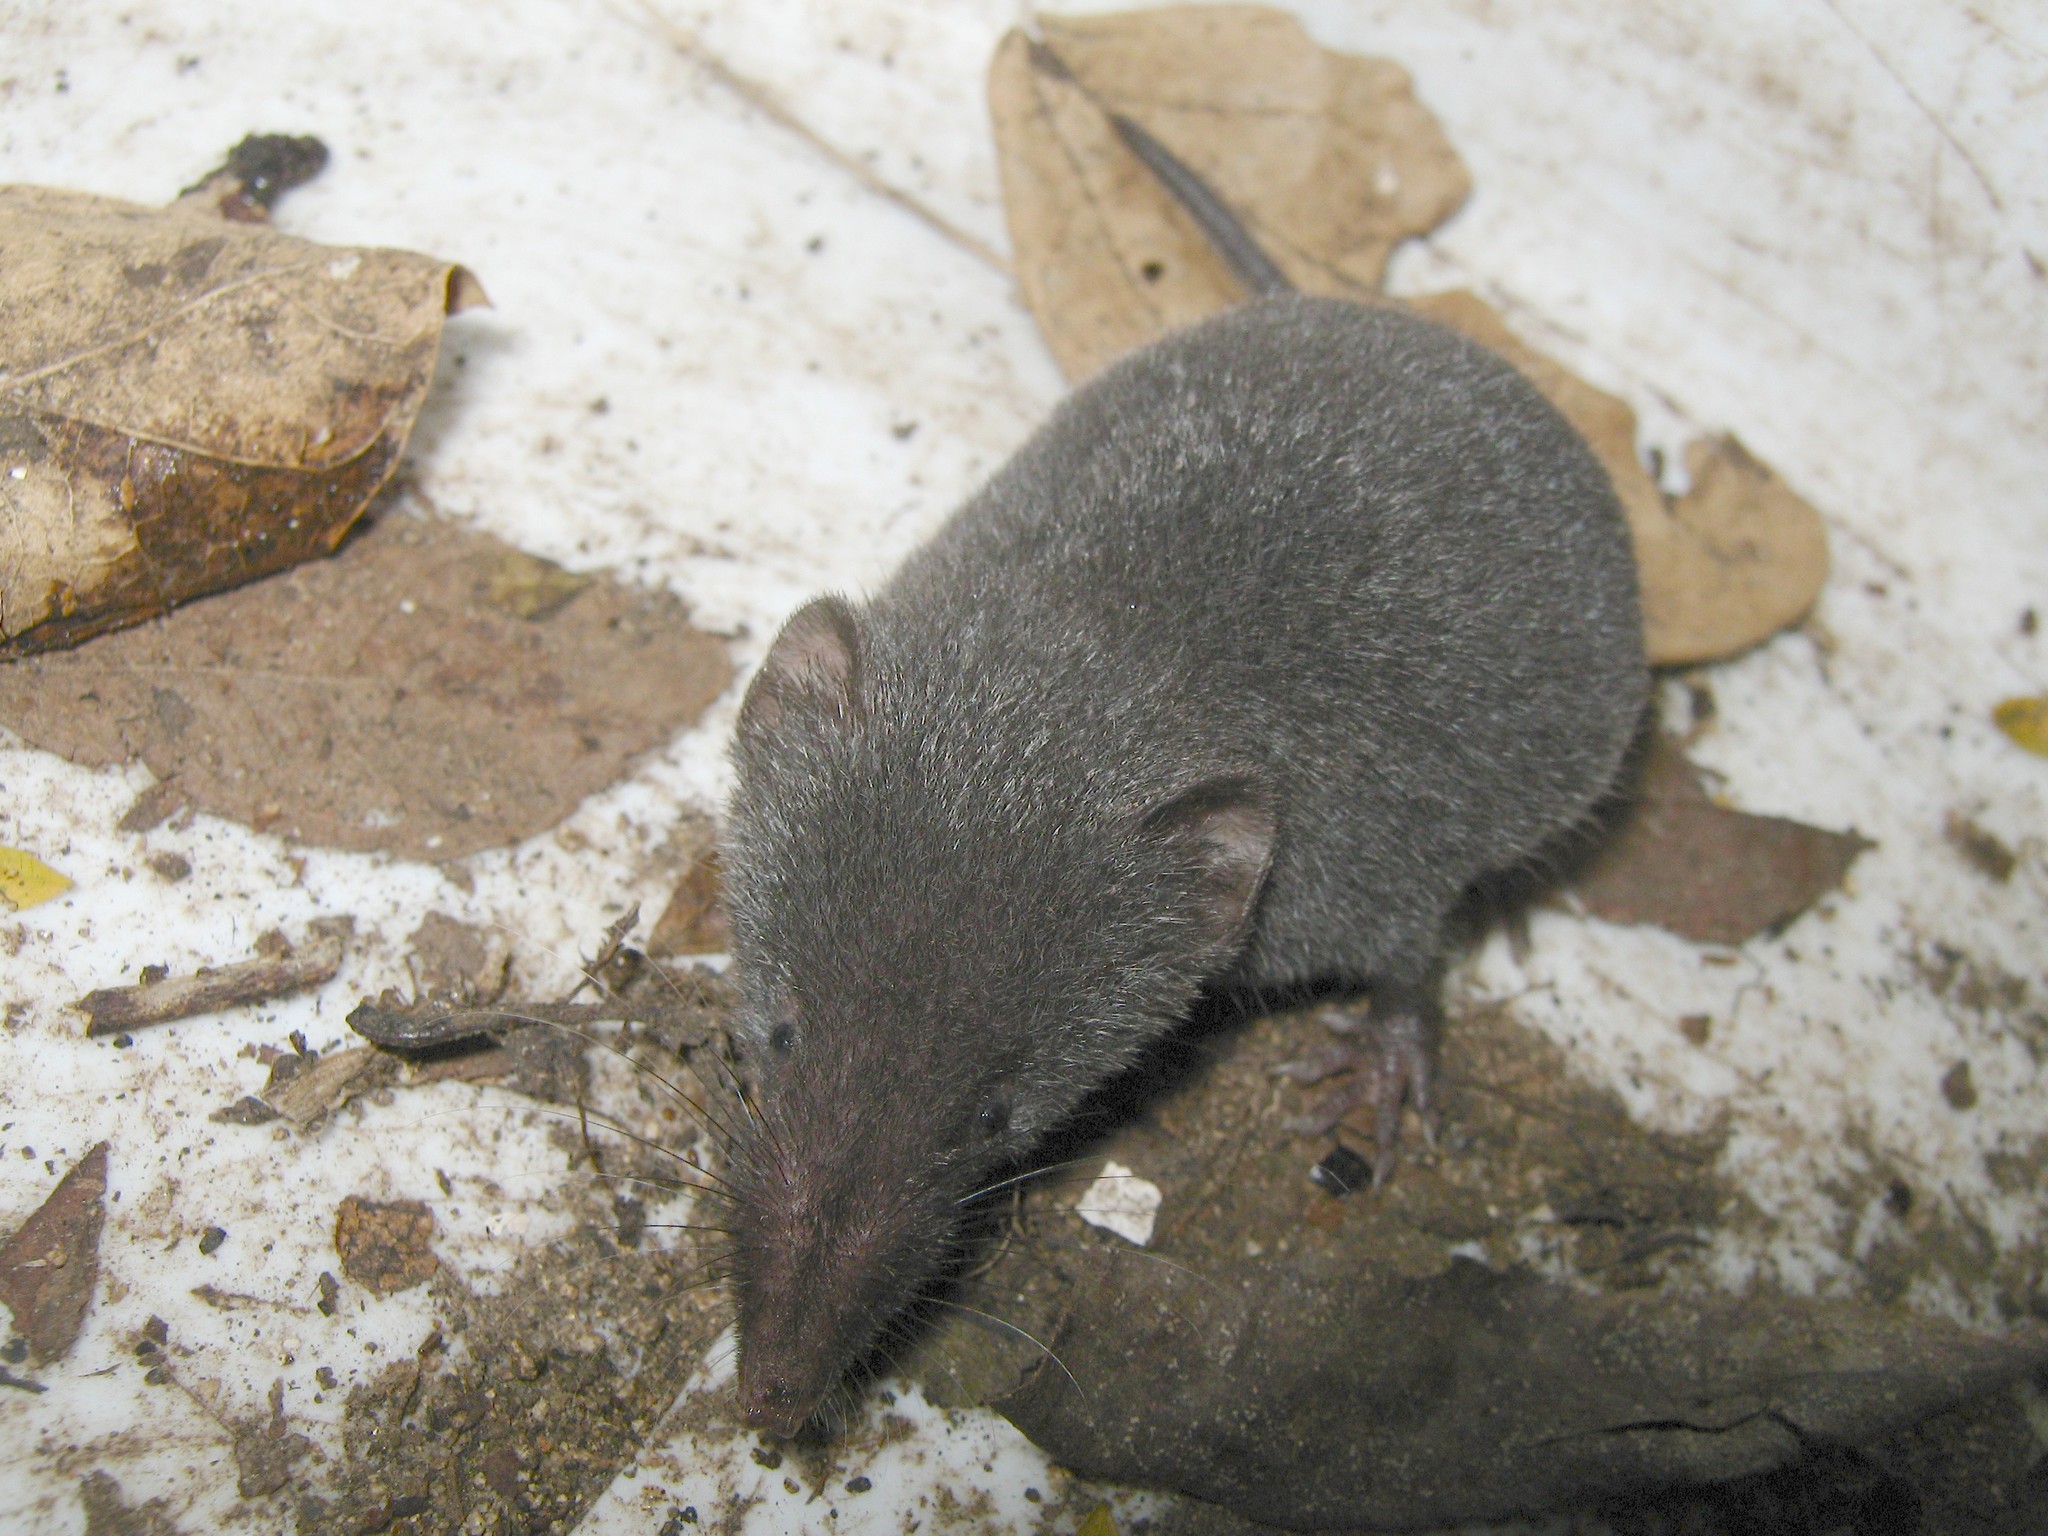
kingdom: Animalia
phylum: Chordata
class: Mammalia
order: Soricomorpha
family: Soricidae
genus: Megasorex
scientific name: Megasorex gigas
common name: Mexican shrew
